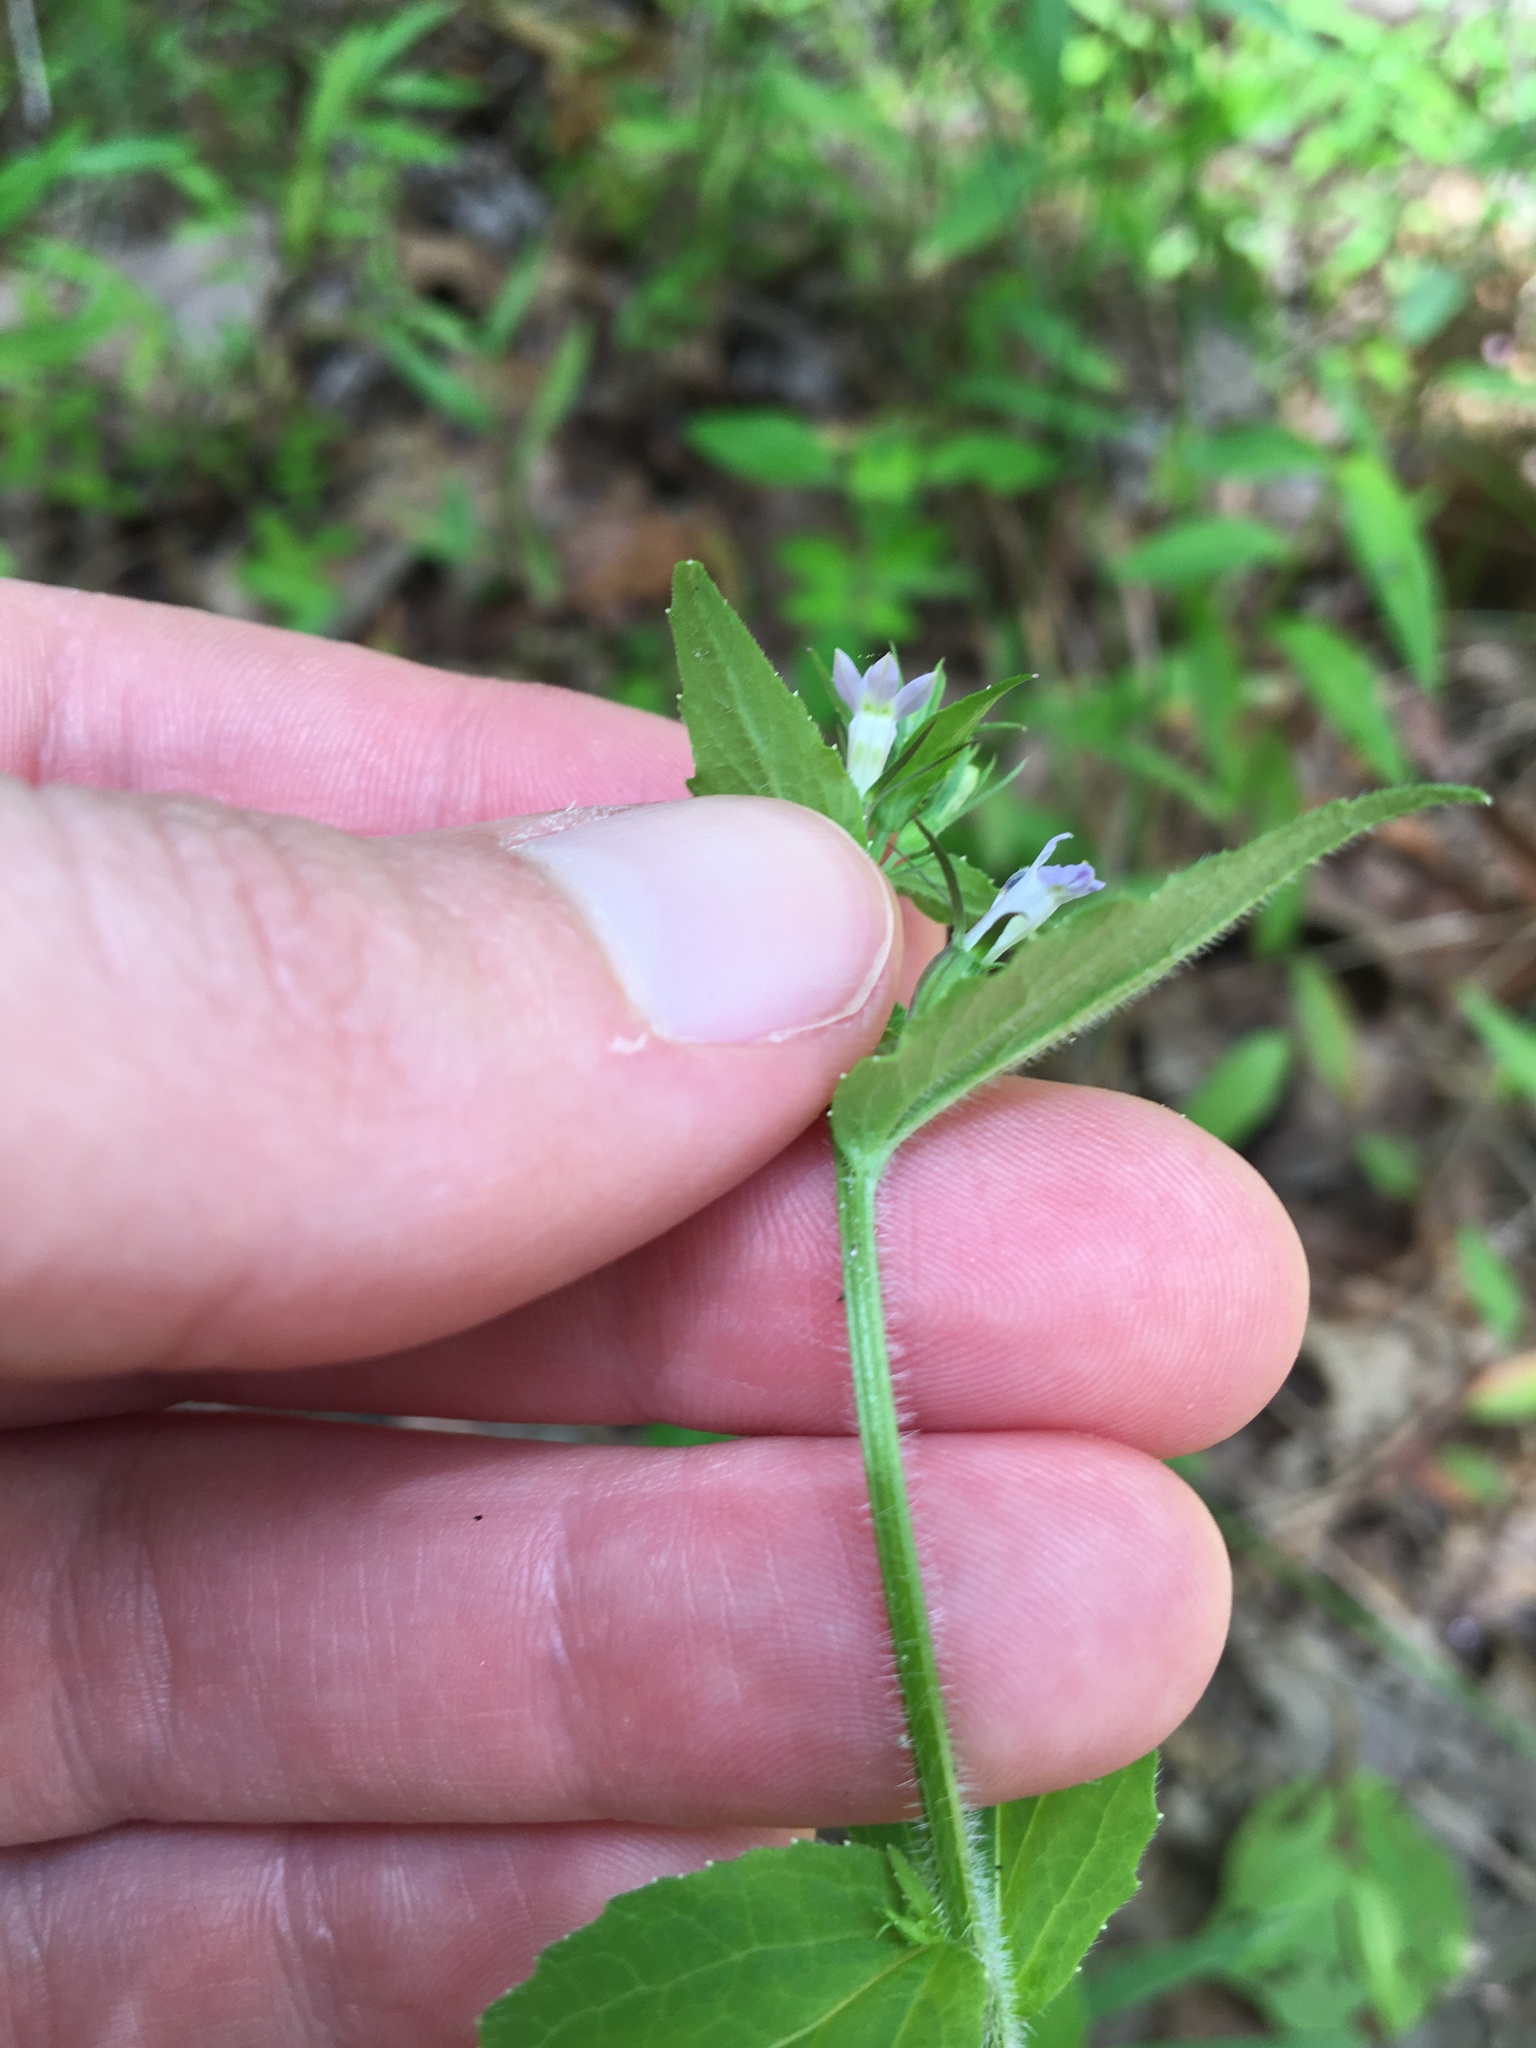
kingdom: Plantae
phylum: Tracheophyta
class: Magnoliopsida
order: Asterales
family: Campanulaceae
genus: Lobelia
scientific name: Lobelia inflata
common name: Indian tobacco
